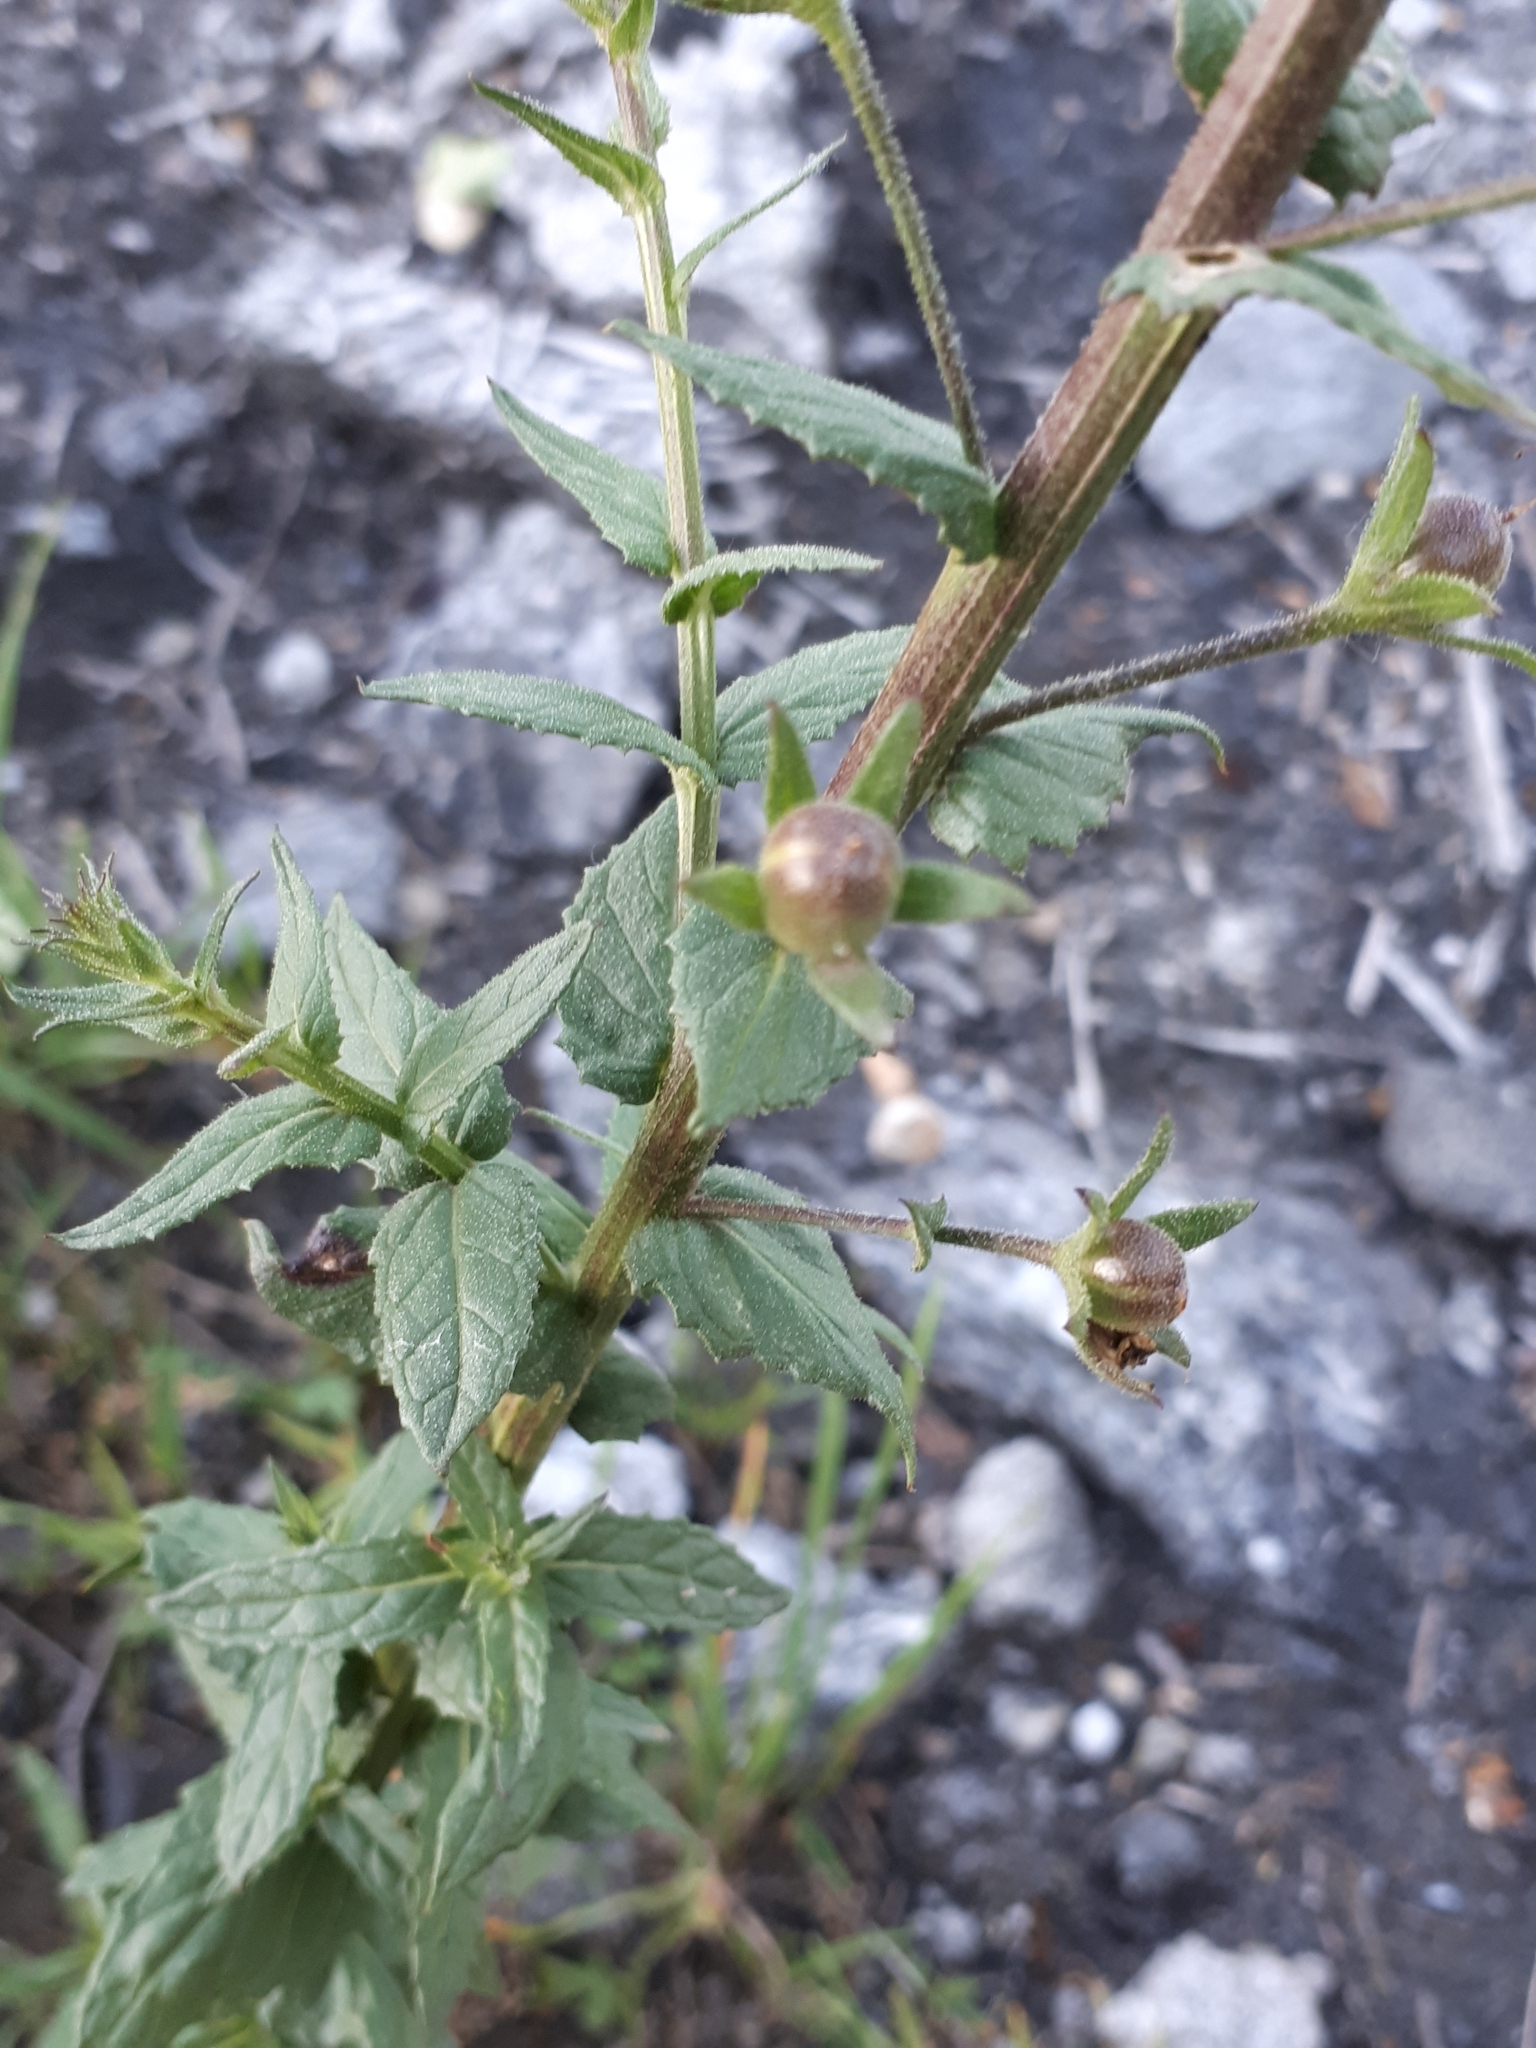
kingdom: Plantae
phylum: Tracheophyta
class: Magnoliopsida
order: Lamiales
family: Scrophulariaceae
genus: Verbascum
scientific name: Verbascum blattaria
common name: Moth mullein
